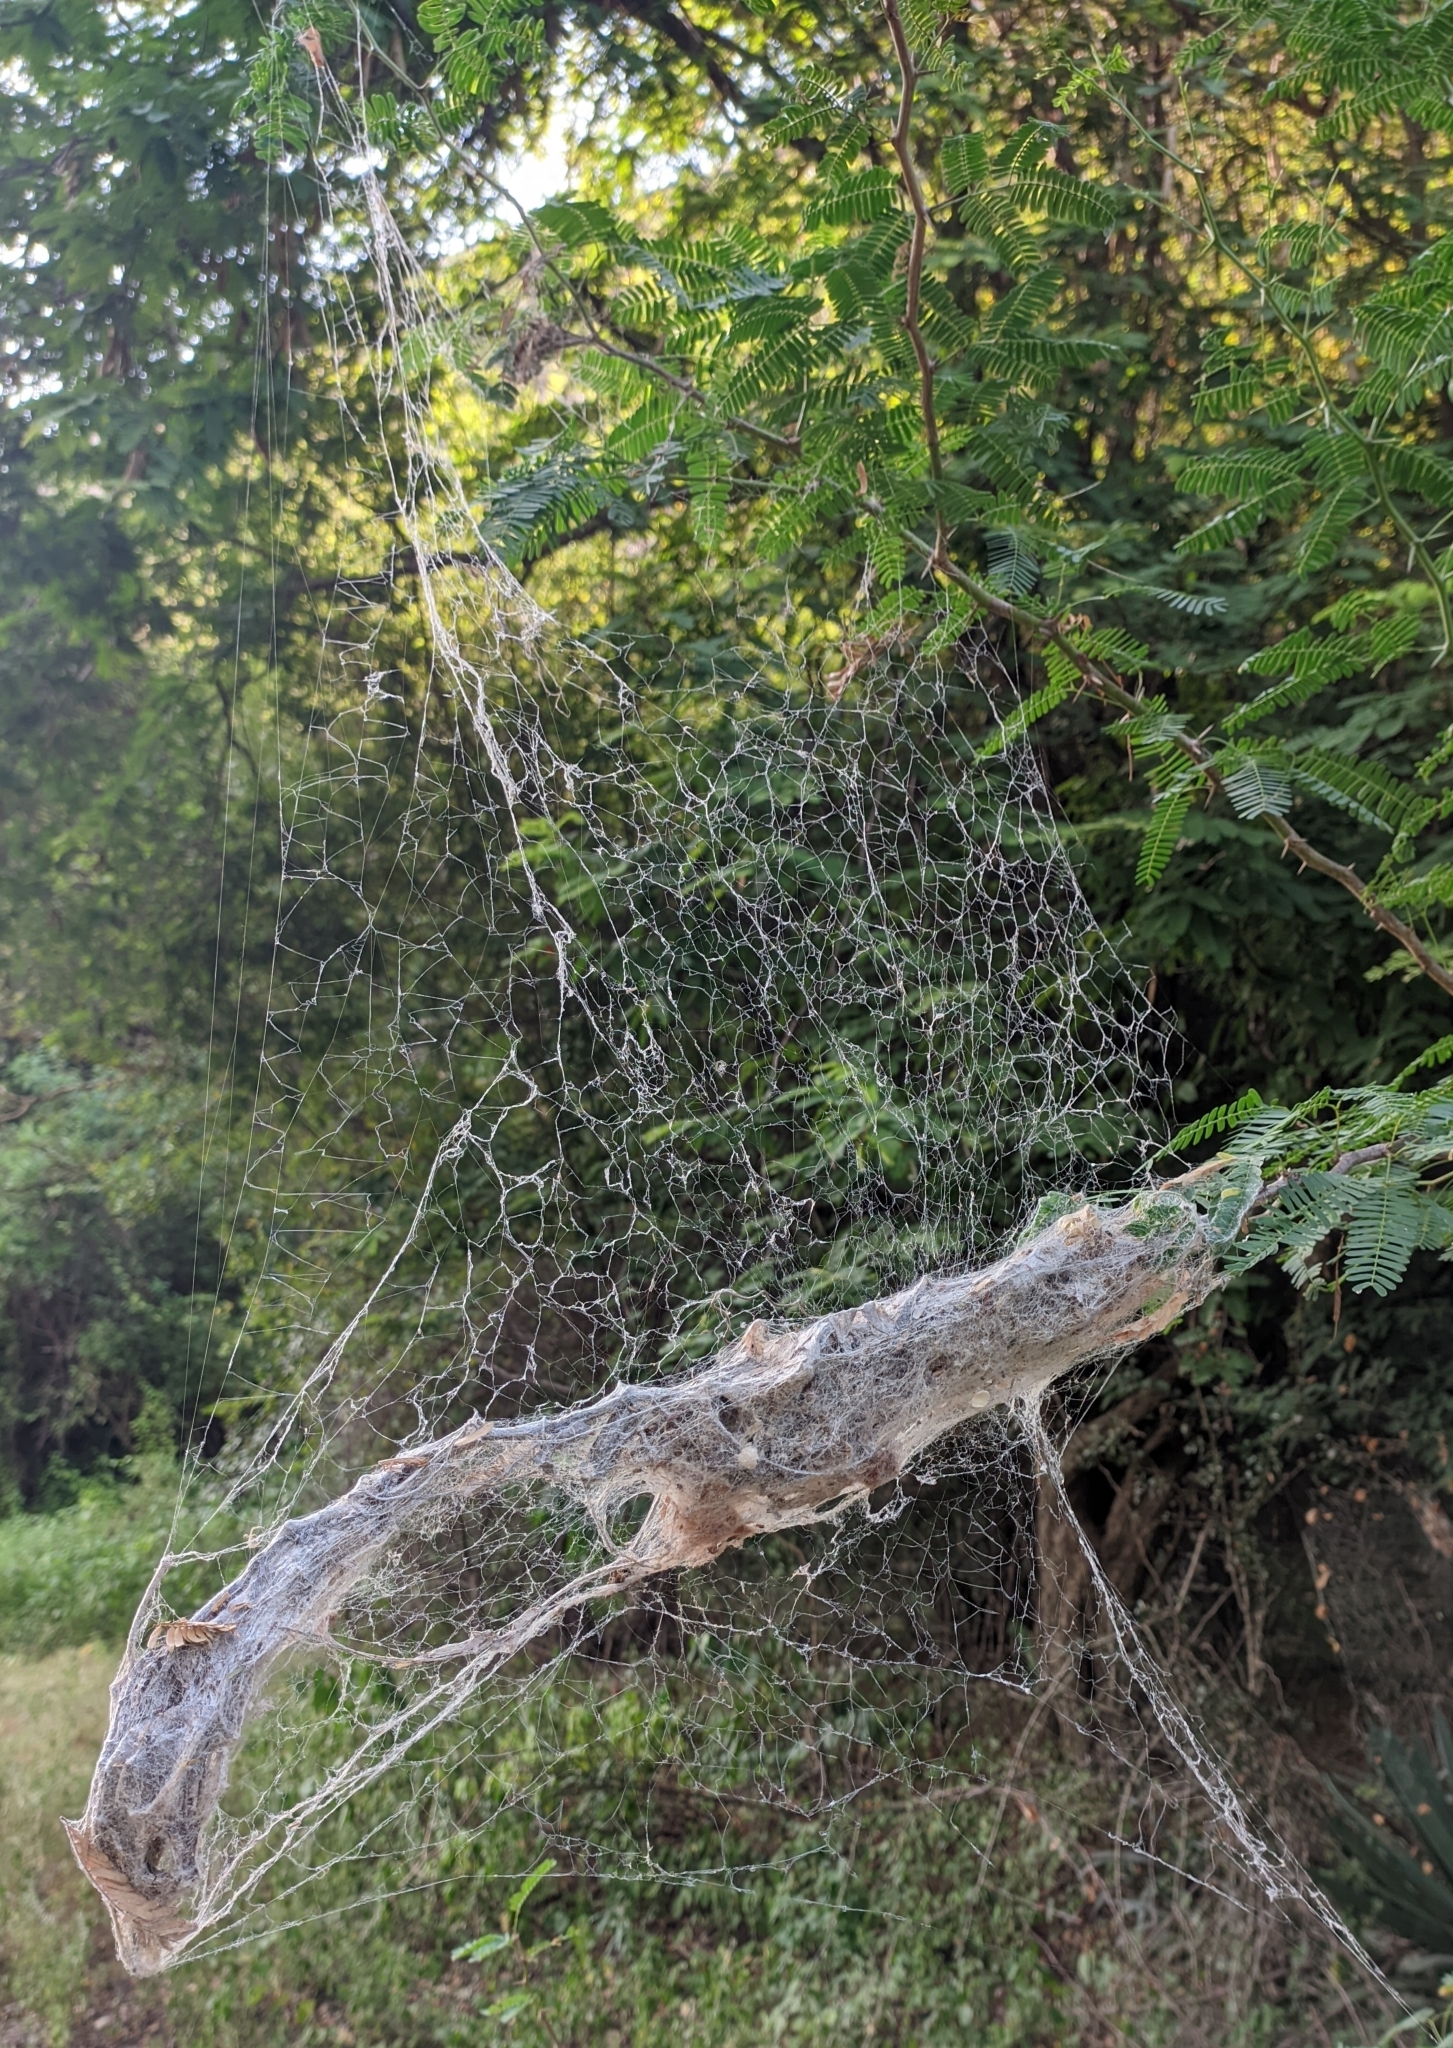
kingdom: Animalia
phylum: Arthropoda
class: Arachnida
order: Araneae
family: Eresidae
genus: Stegodyphus
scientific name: Stegodyphus sarasinorum
